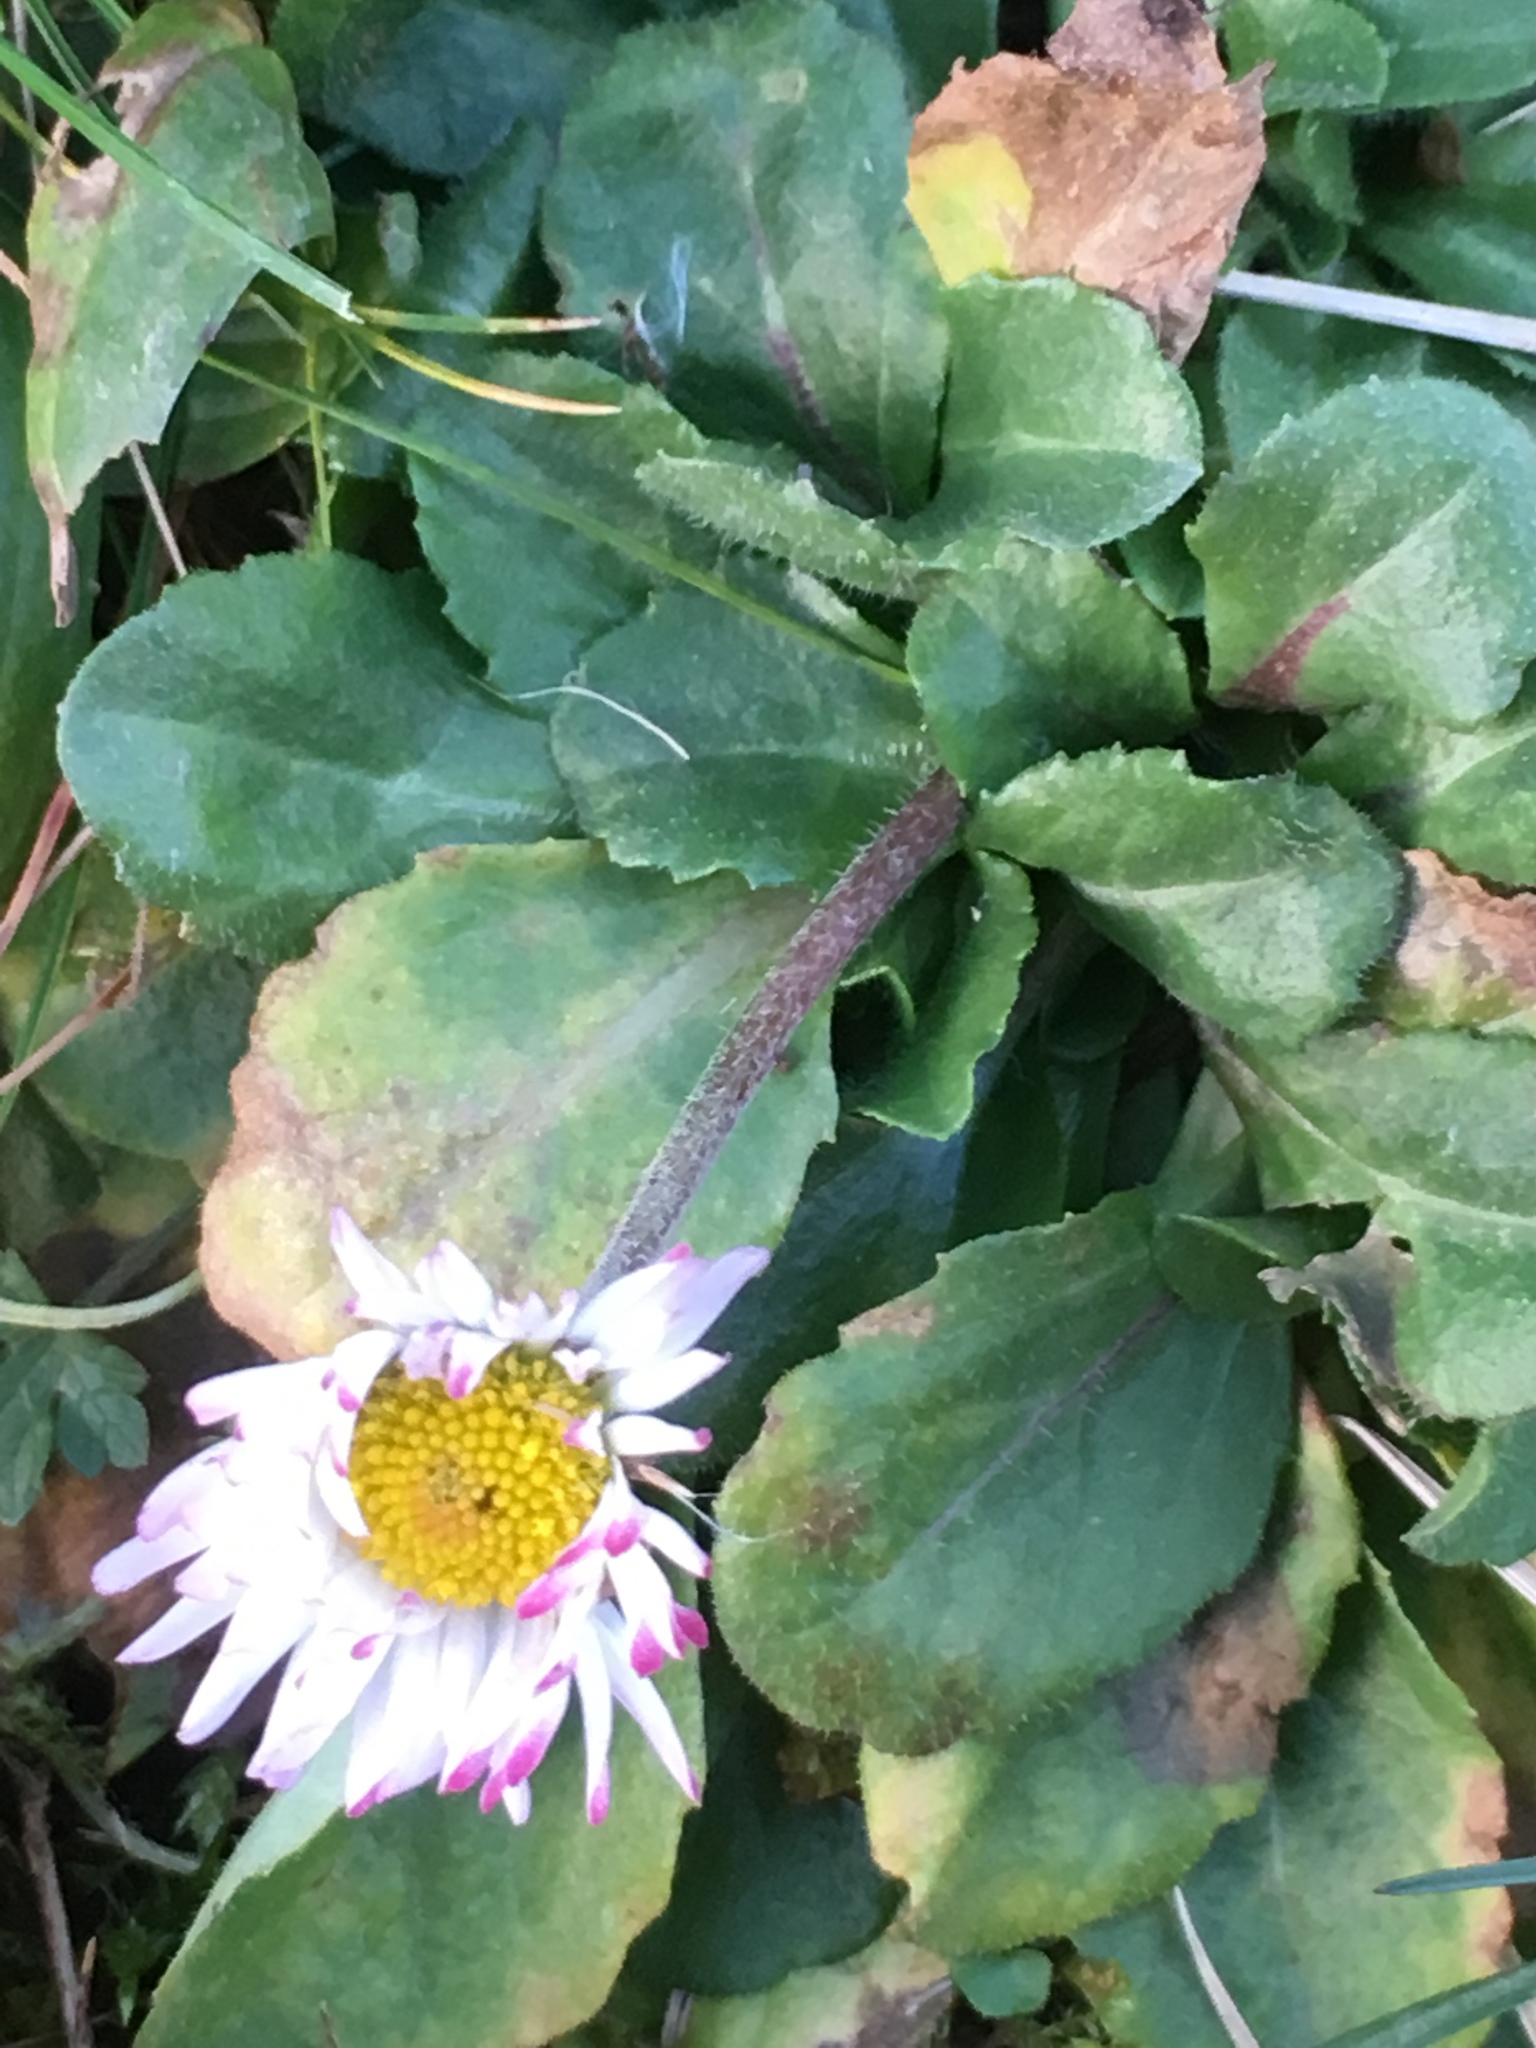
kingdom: Plantae
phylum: Tracheophyta
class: Magnoliopsida
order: Asterales
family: Asteraceae
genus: Bellis
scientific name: Bellis perennis
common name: Lawndaisy
